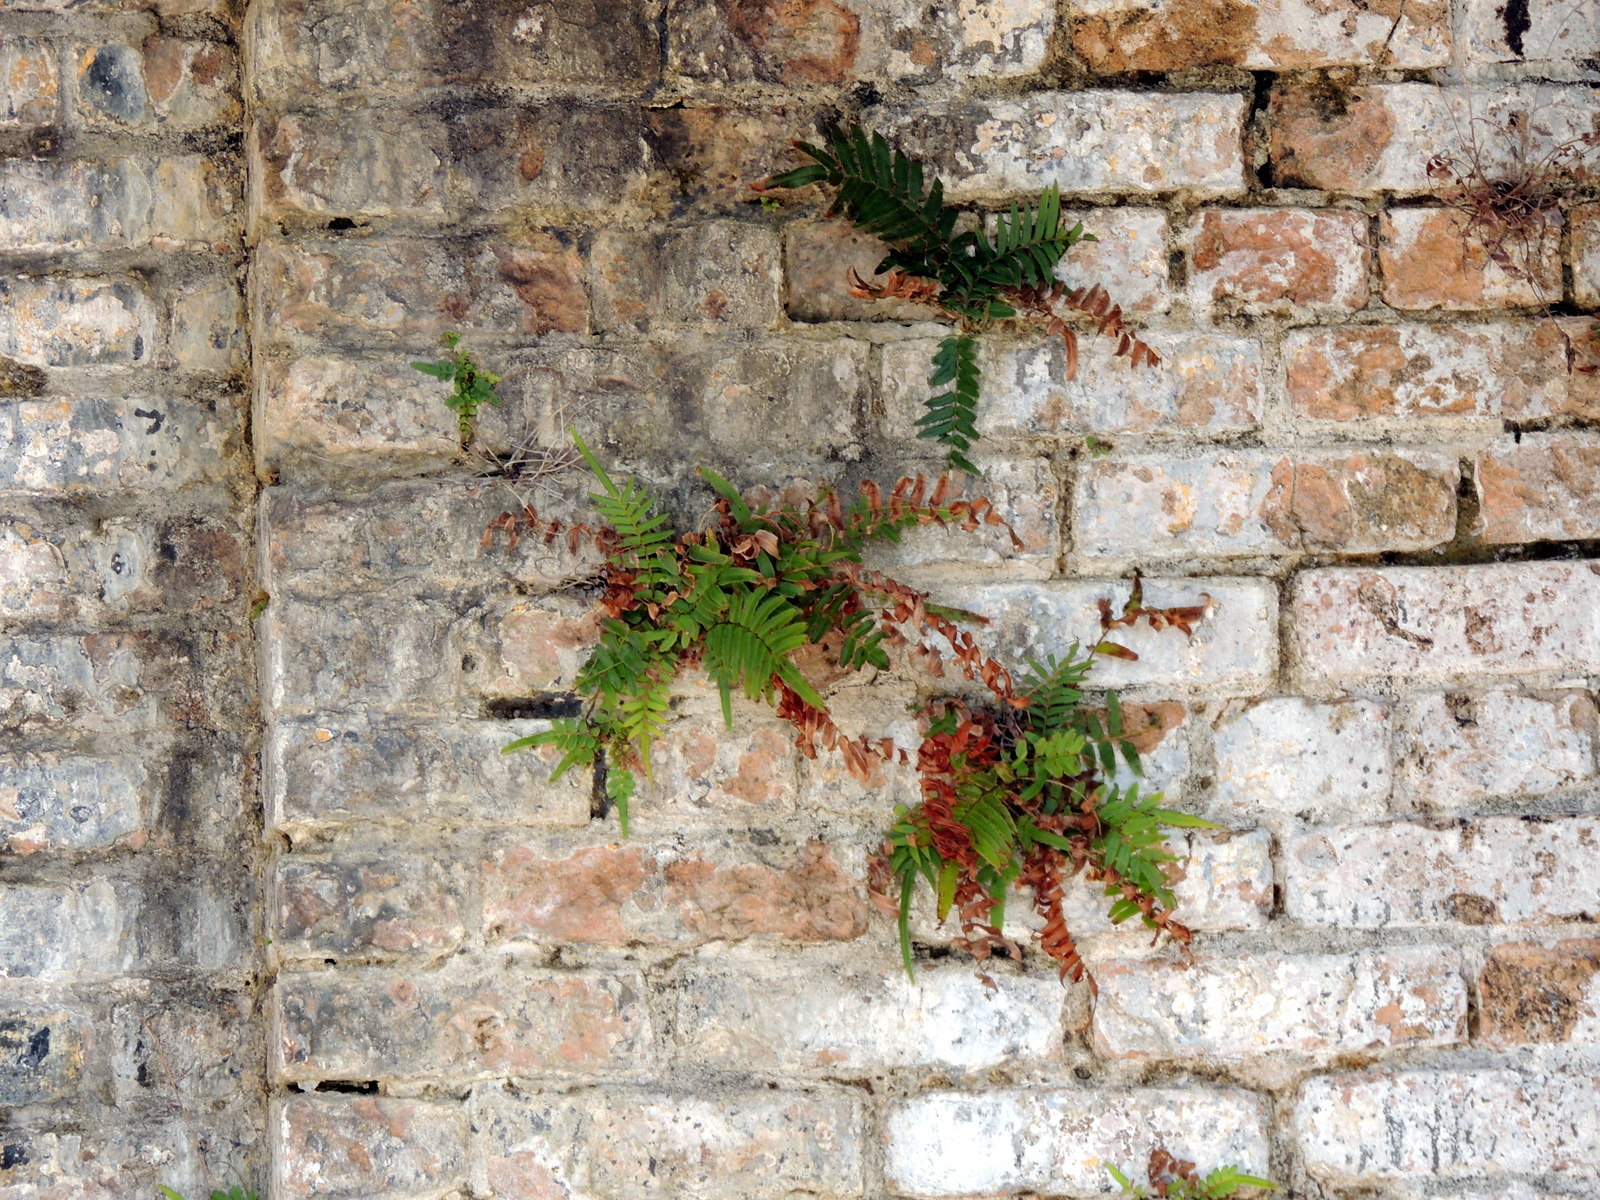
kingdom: Plantae
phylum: Tracheophyta
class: Polypodiopsida
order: Polypodiales
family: Pteridaceae
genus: Pteris
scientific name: Pteris vittata
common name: Ladder brake
